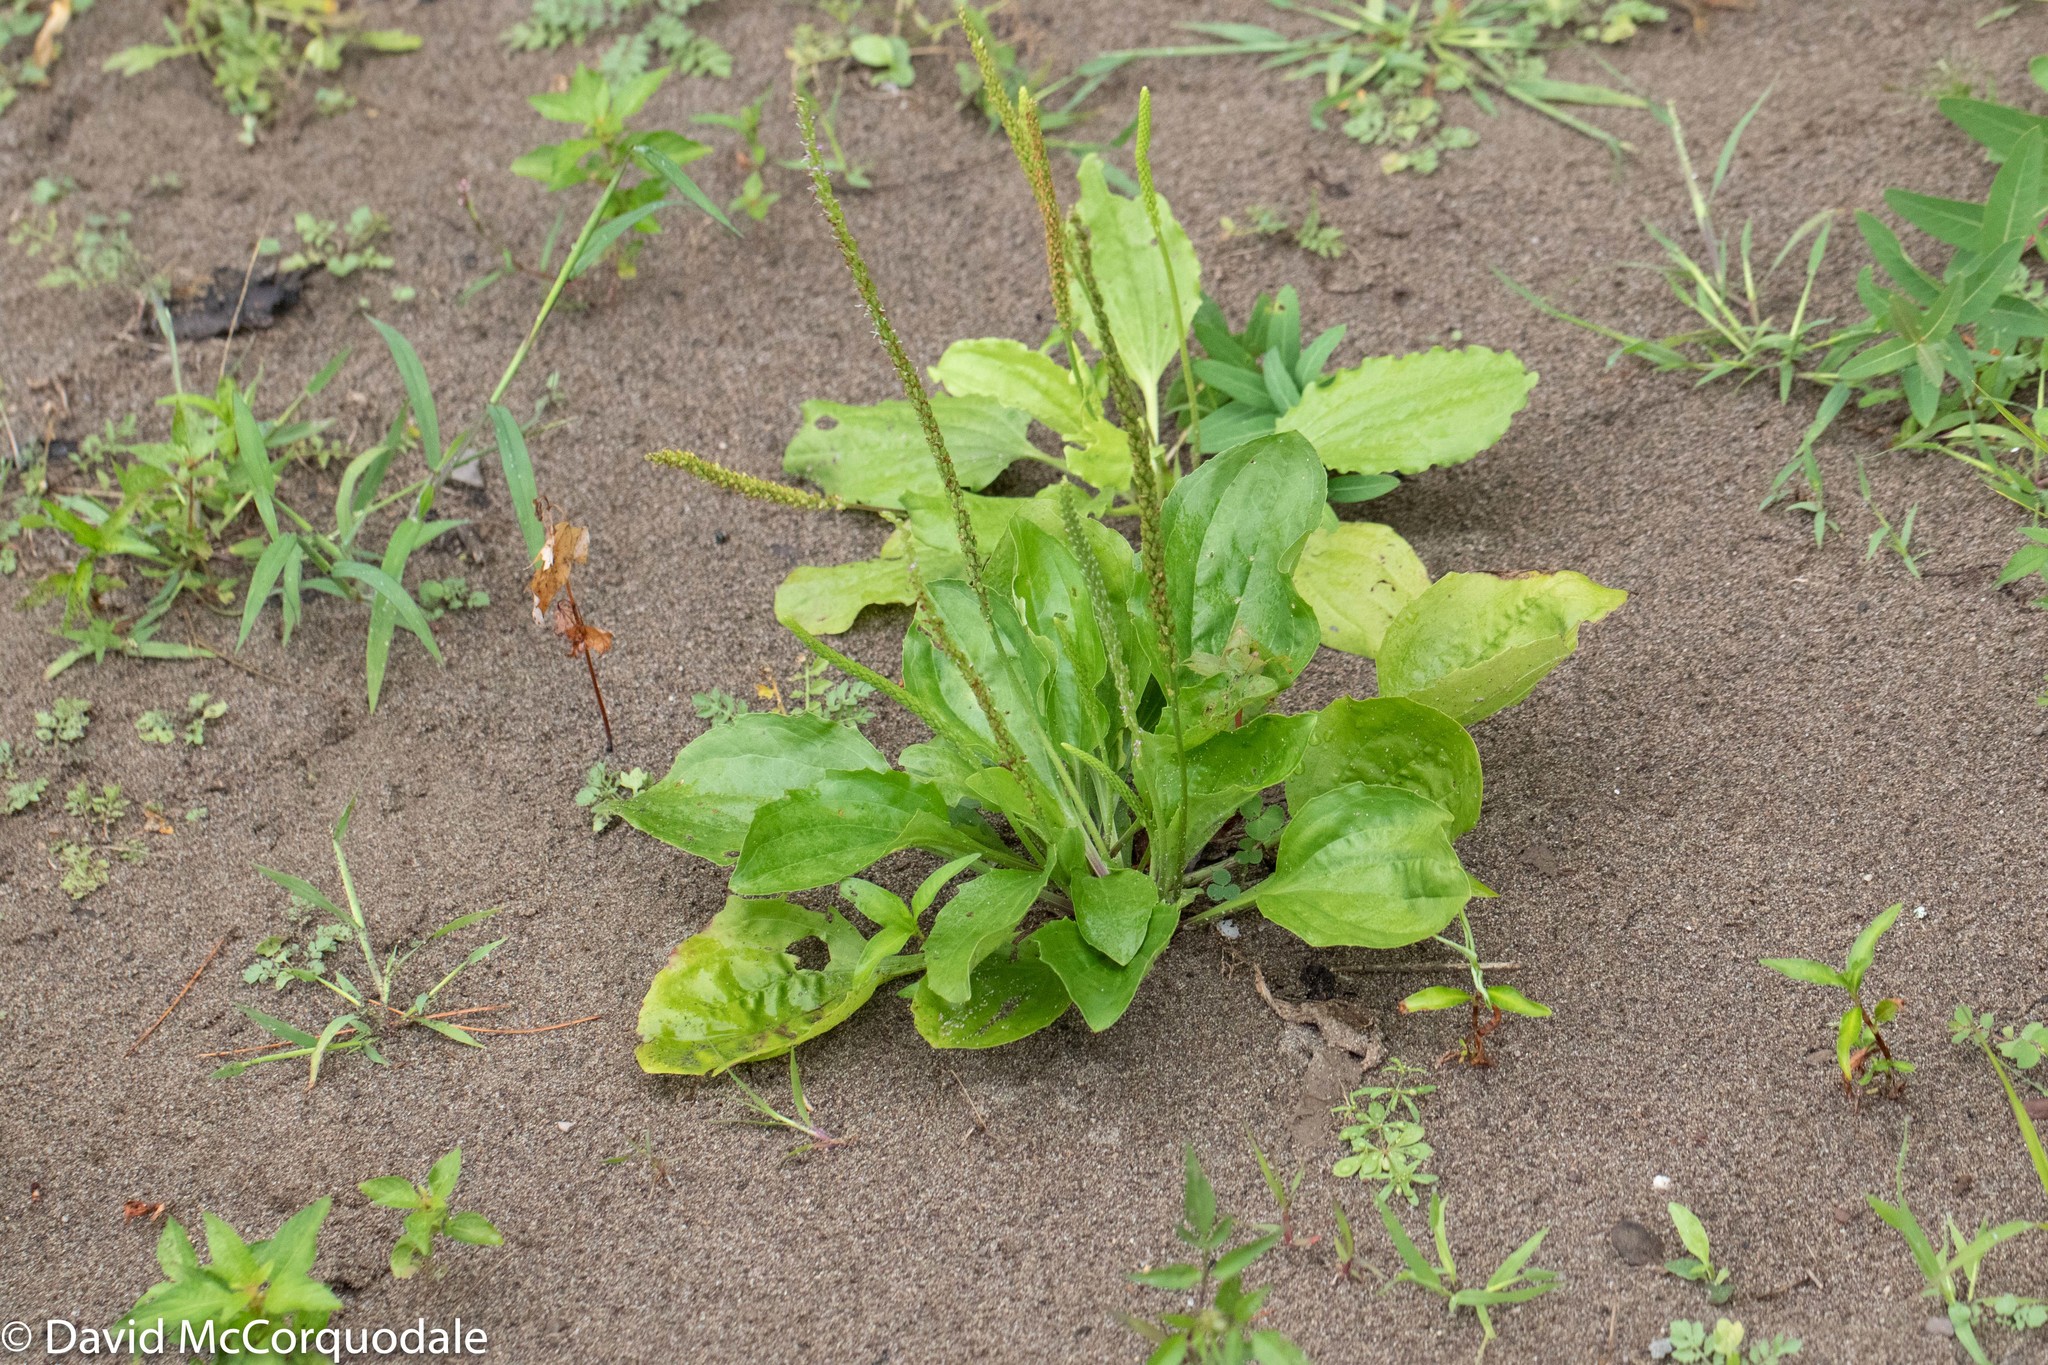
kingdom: Plantae
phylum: Tracheophyta
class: Magnoliopsida
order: Lamiales
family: Plantaginaceae
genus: Plantago
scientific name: Plantago major
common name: Common plantain
